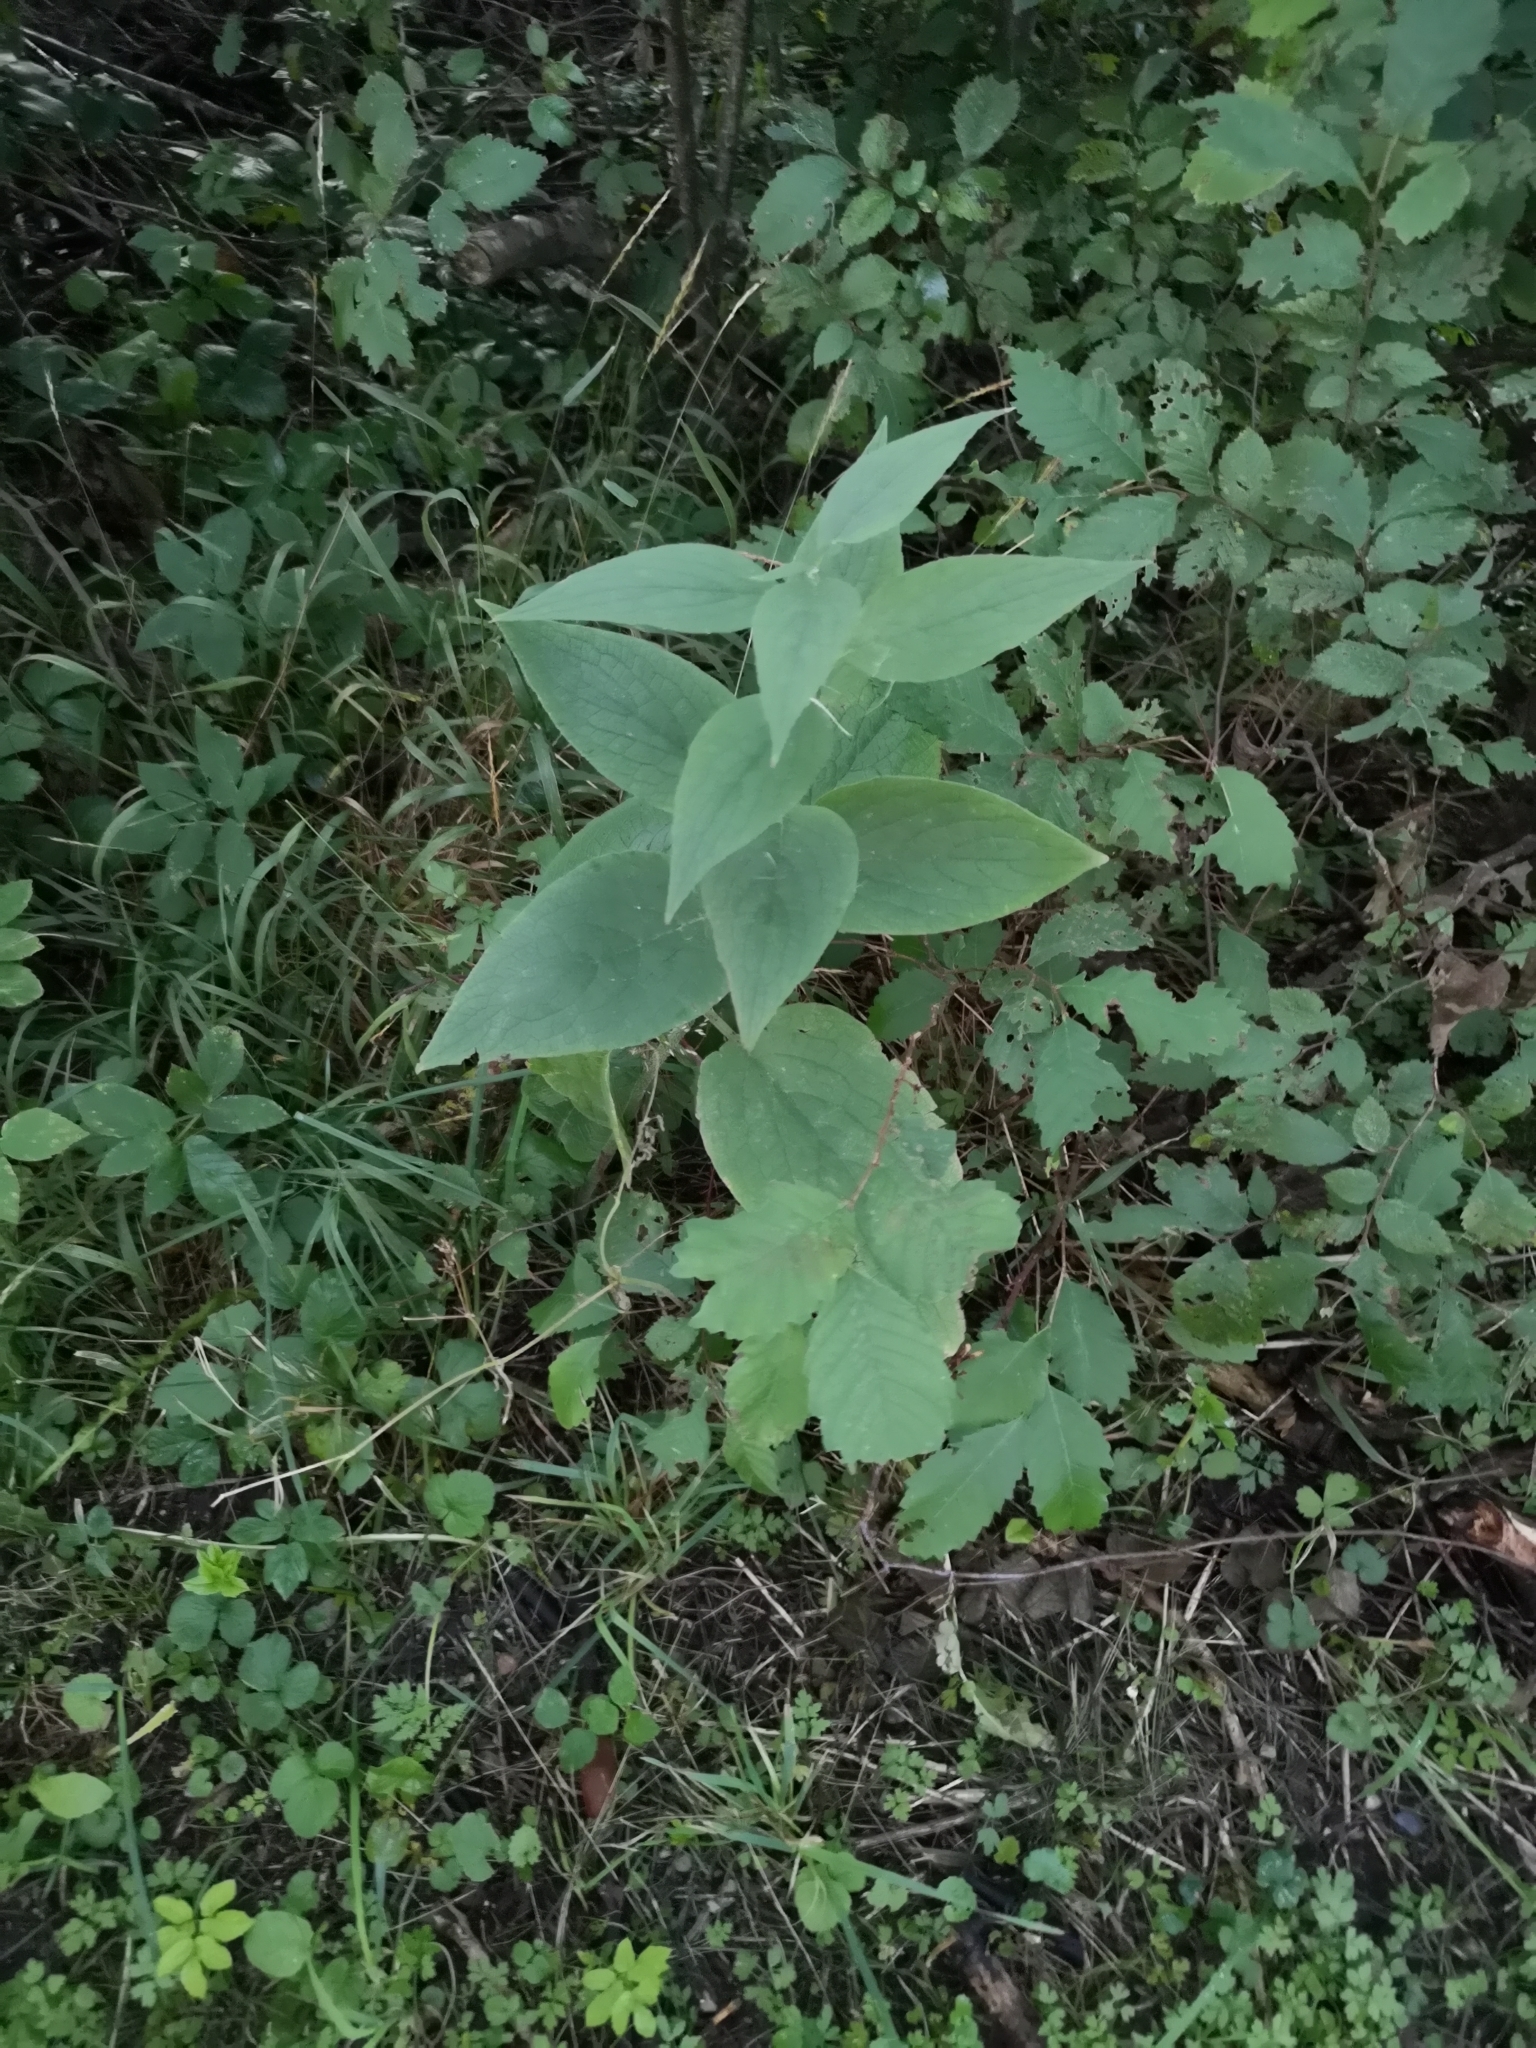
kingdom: Plantae
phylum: Tracheophyta
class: Magnoliopsida
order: Asterales
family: Campanulaceae
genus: Campanula
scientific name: Campanula latifolia
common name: Giant bellflower
